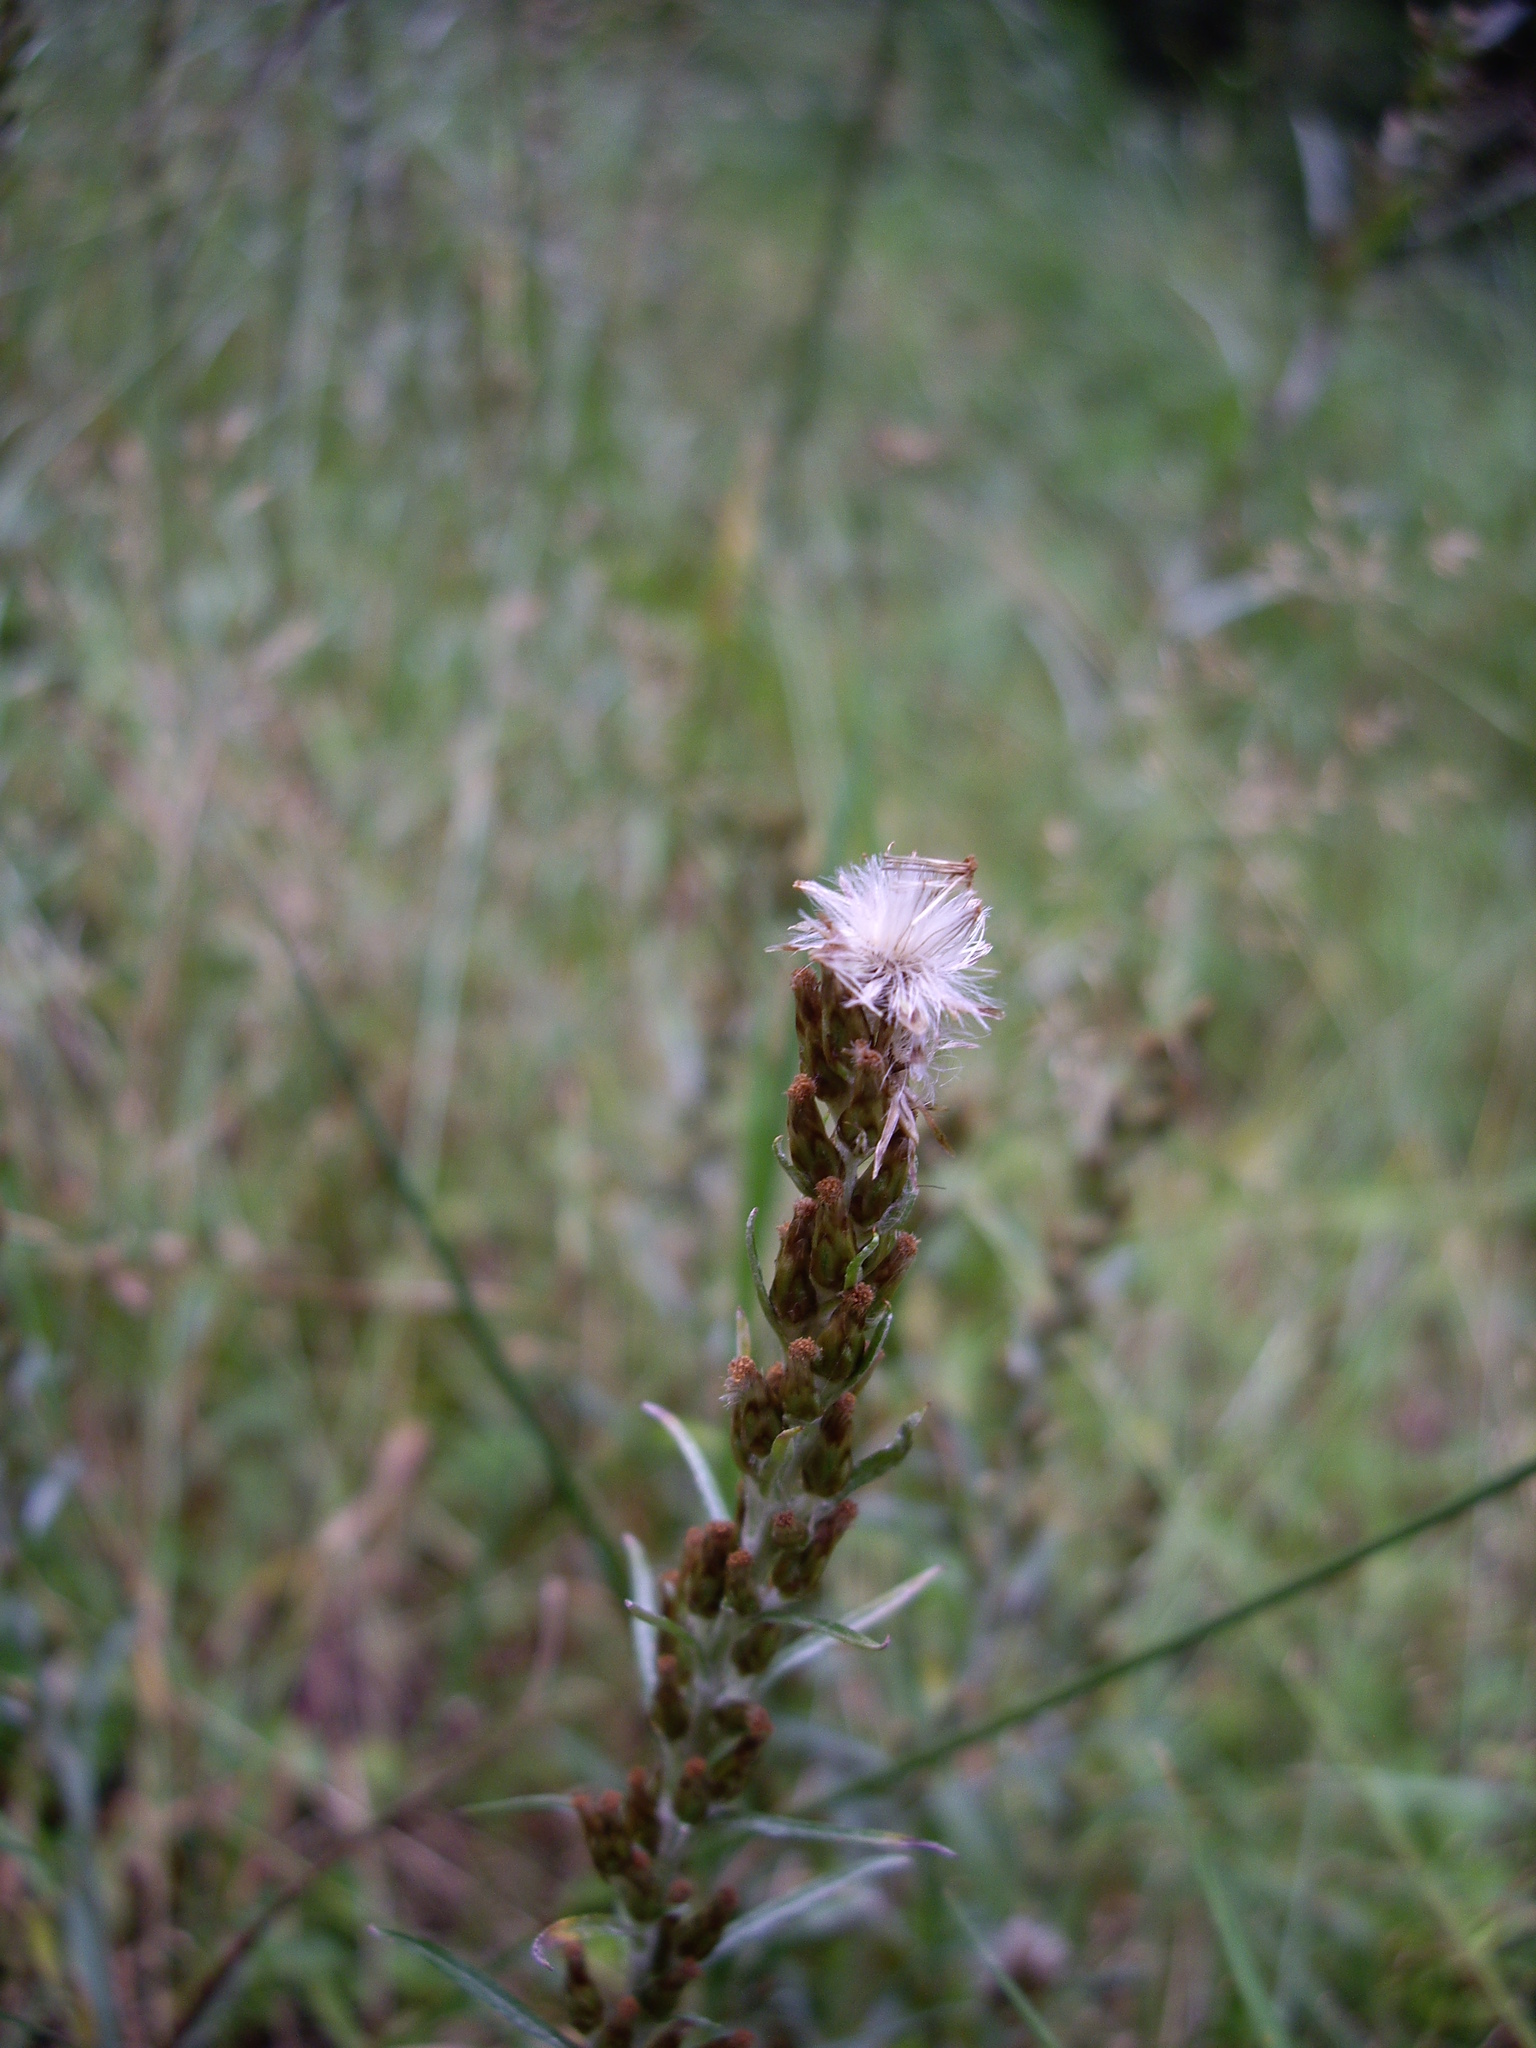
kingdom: Plantae
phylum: Tracheophyta
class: Magnoliopsida
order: Asterales
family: Asteraceae
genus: Omalotheca
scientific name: Omalotheca sylvatica
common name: Heath cudweed
